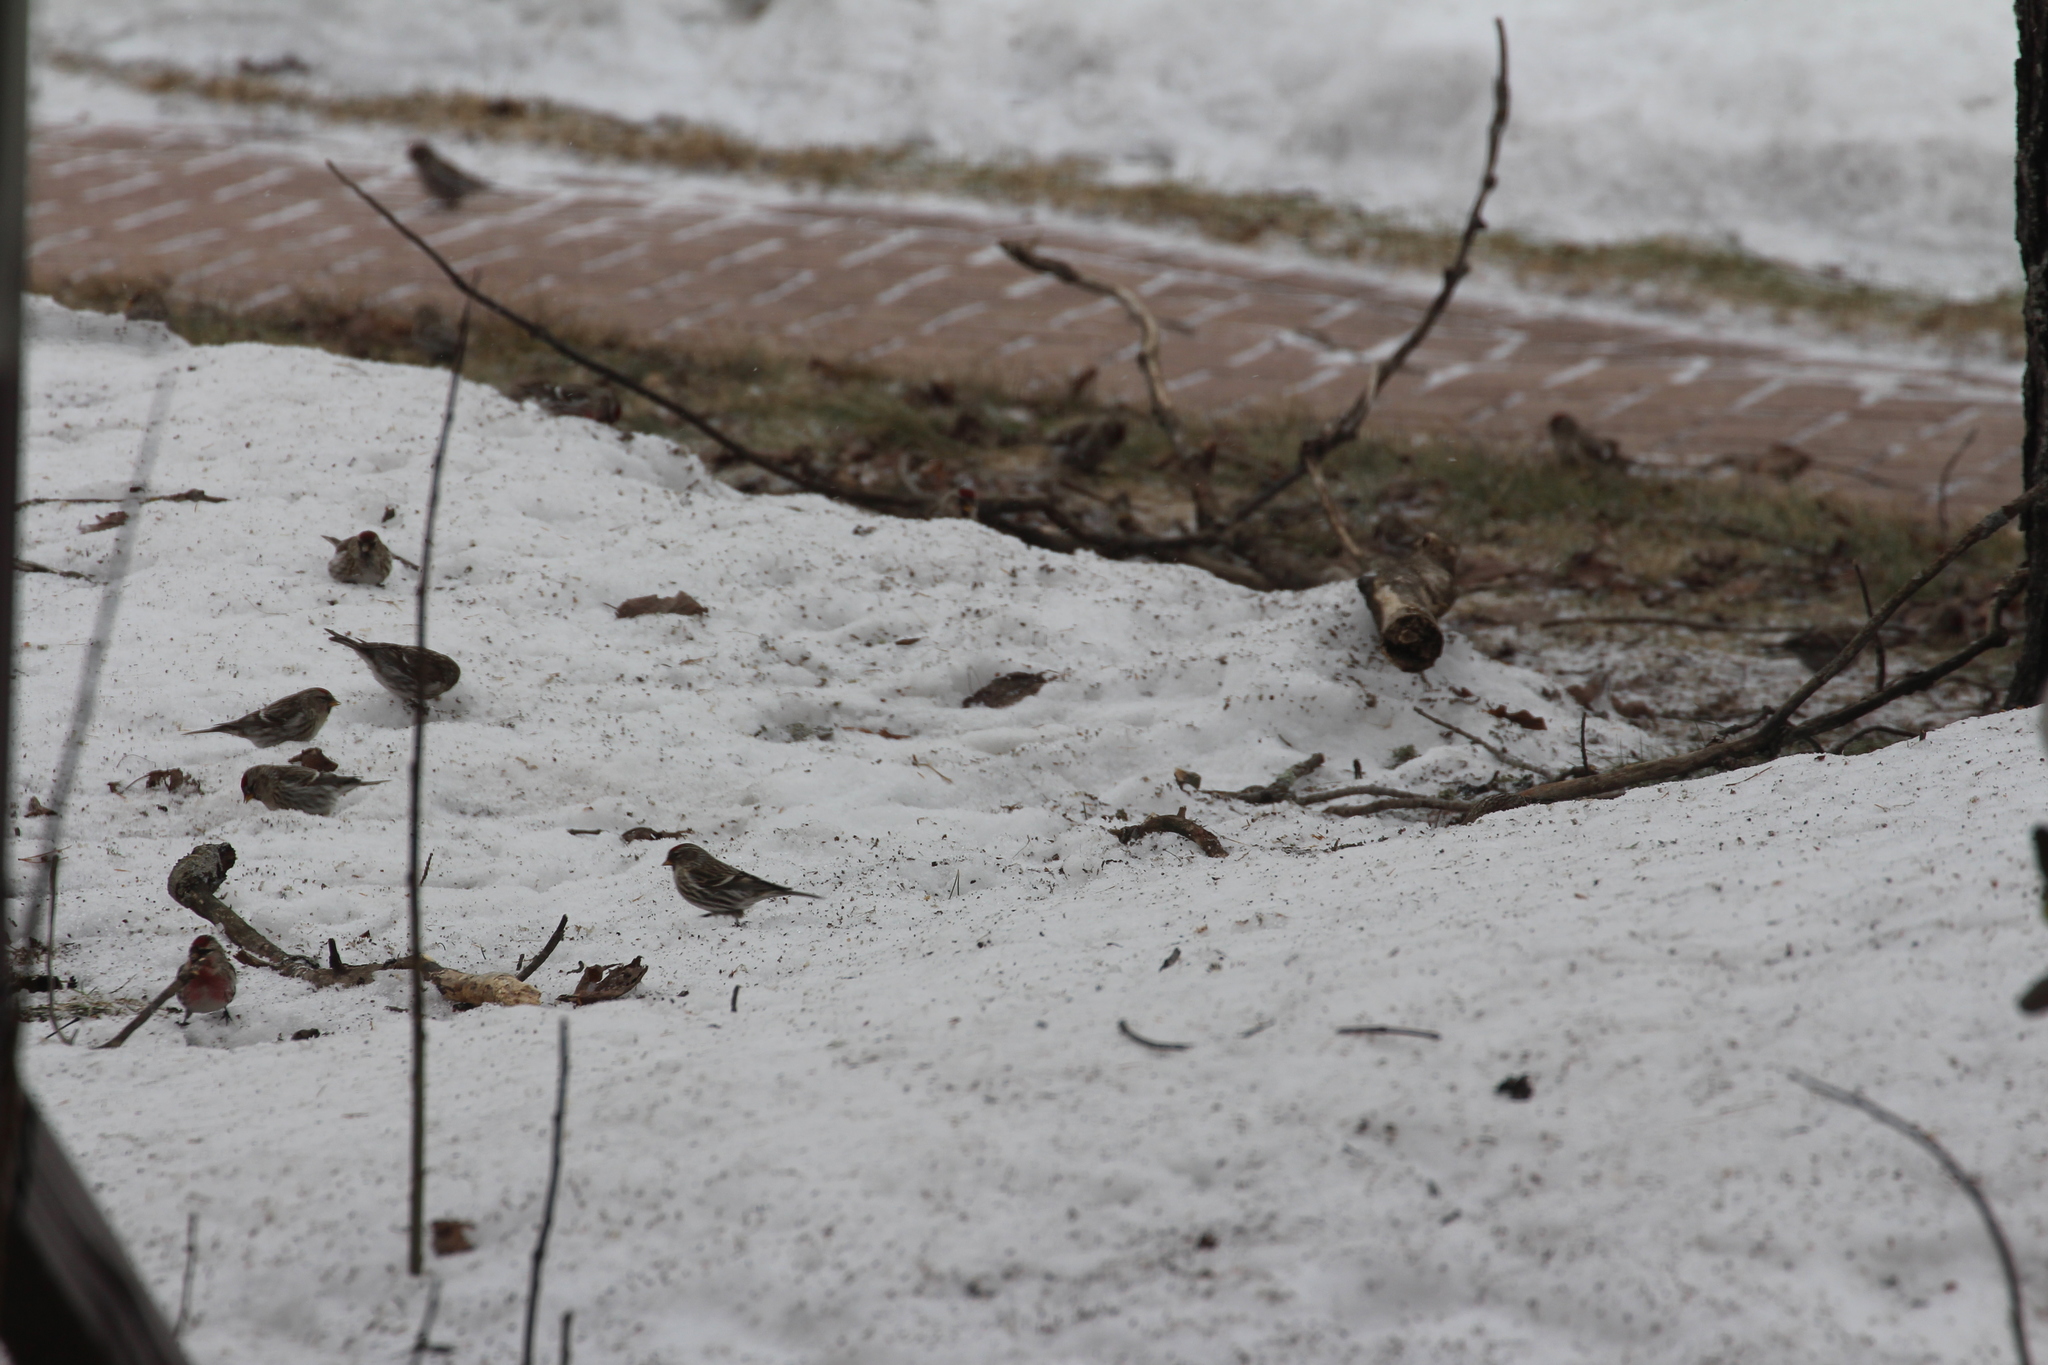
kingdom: Animalia
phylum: Chordata
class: Aves
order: Passeriformes
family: Fringillidae
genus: Acanthis
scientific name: Acanthis flammea
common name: Common redpoll
